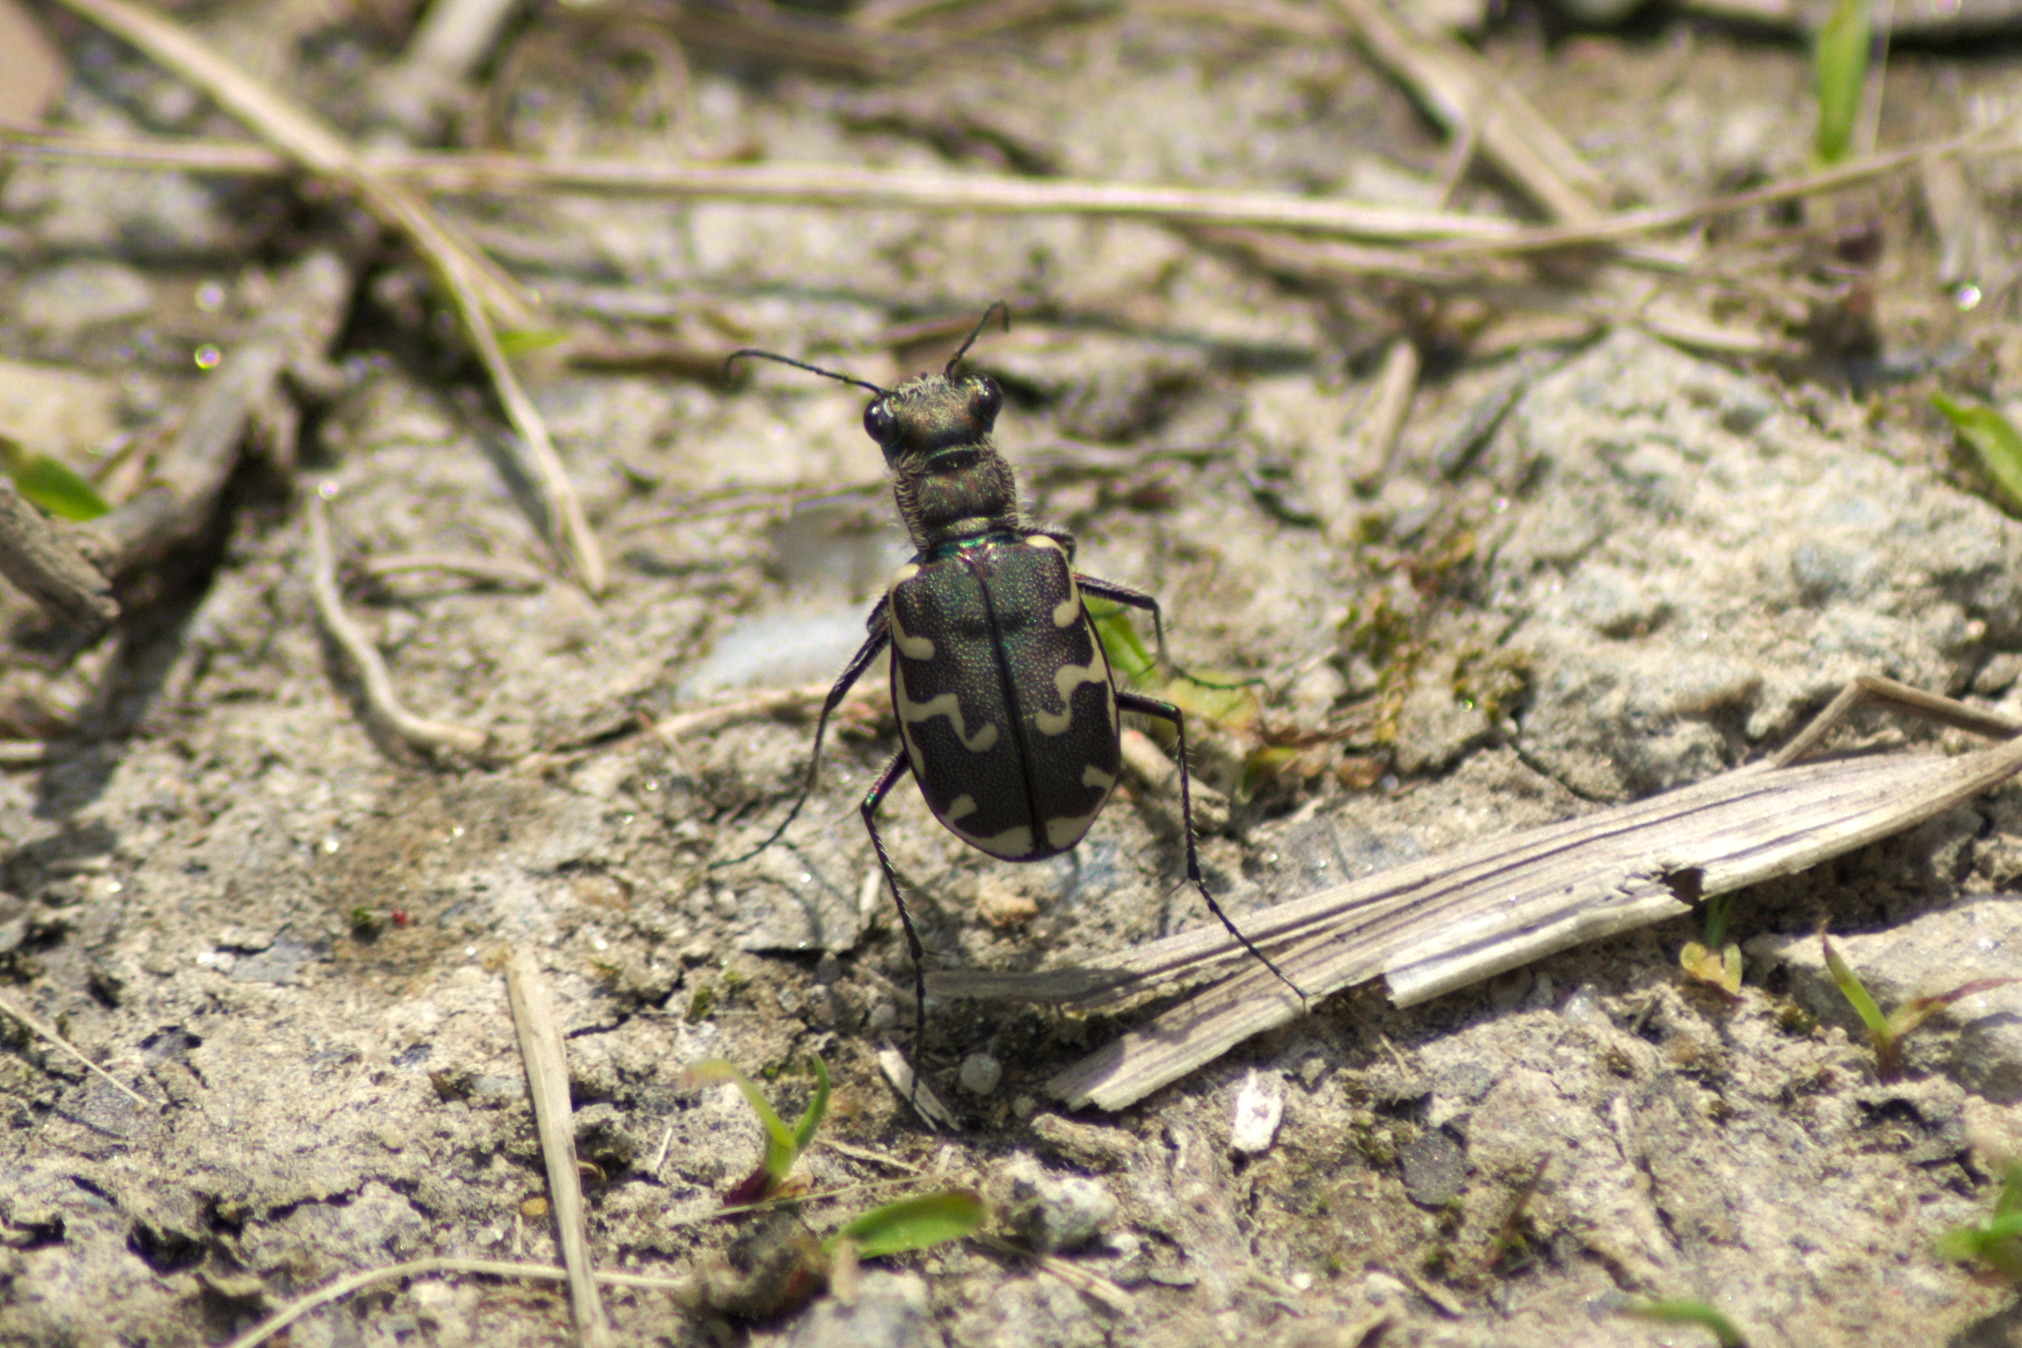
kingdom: Animalia
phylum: Arthropoda
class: Insecta
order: Coleoptera
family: Carabidae
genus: Cicindela
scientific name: Cicindela repanda
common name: Bronzed tiger beetle
